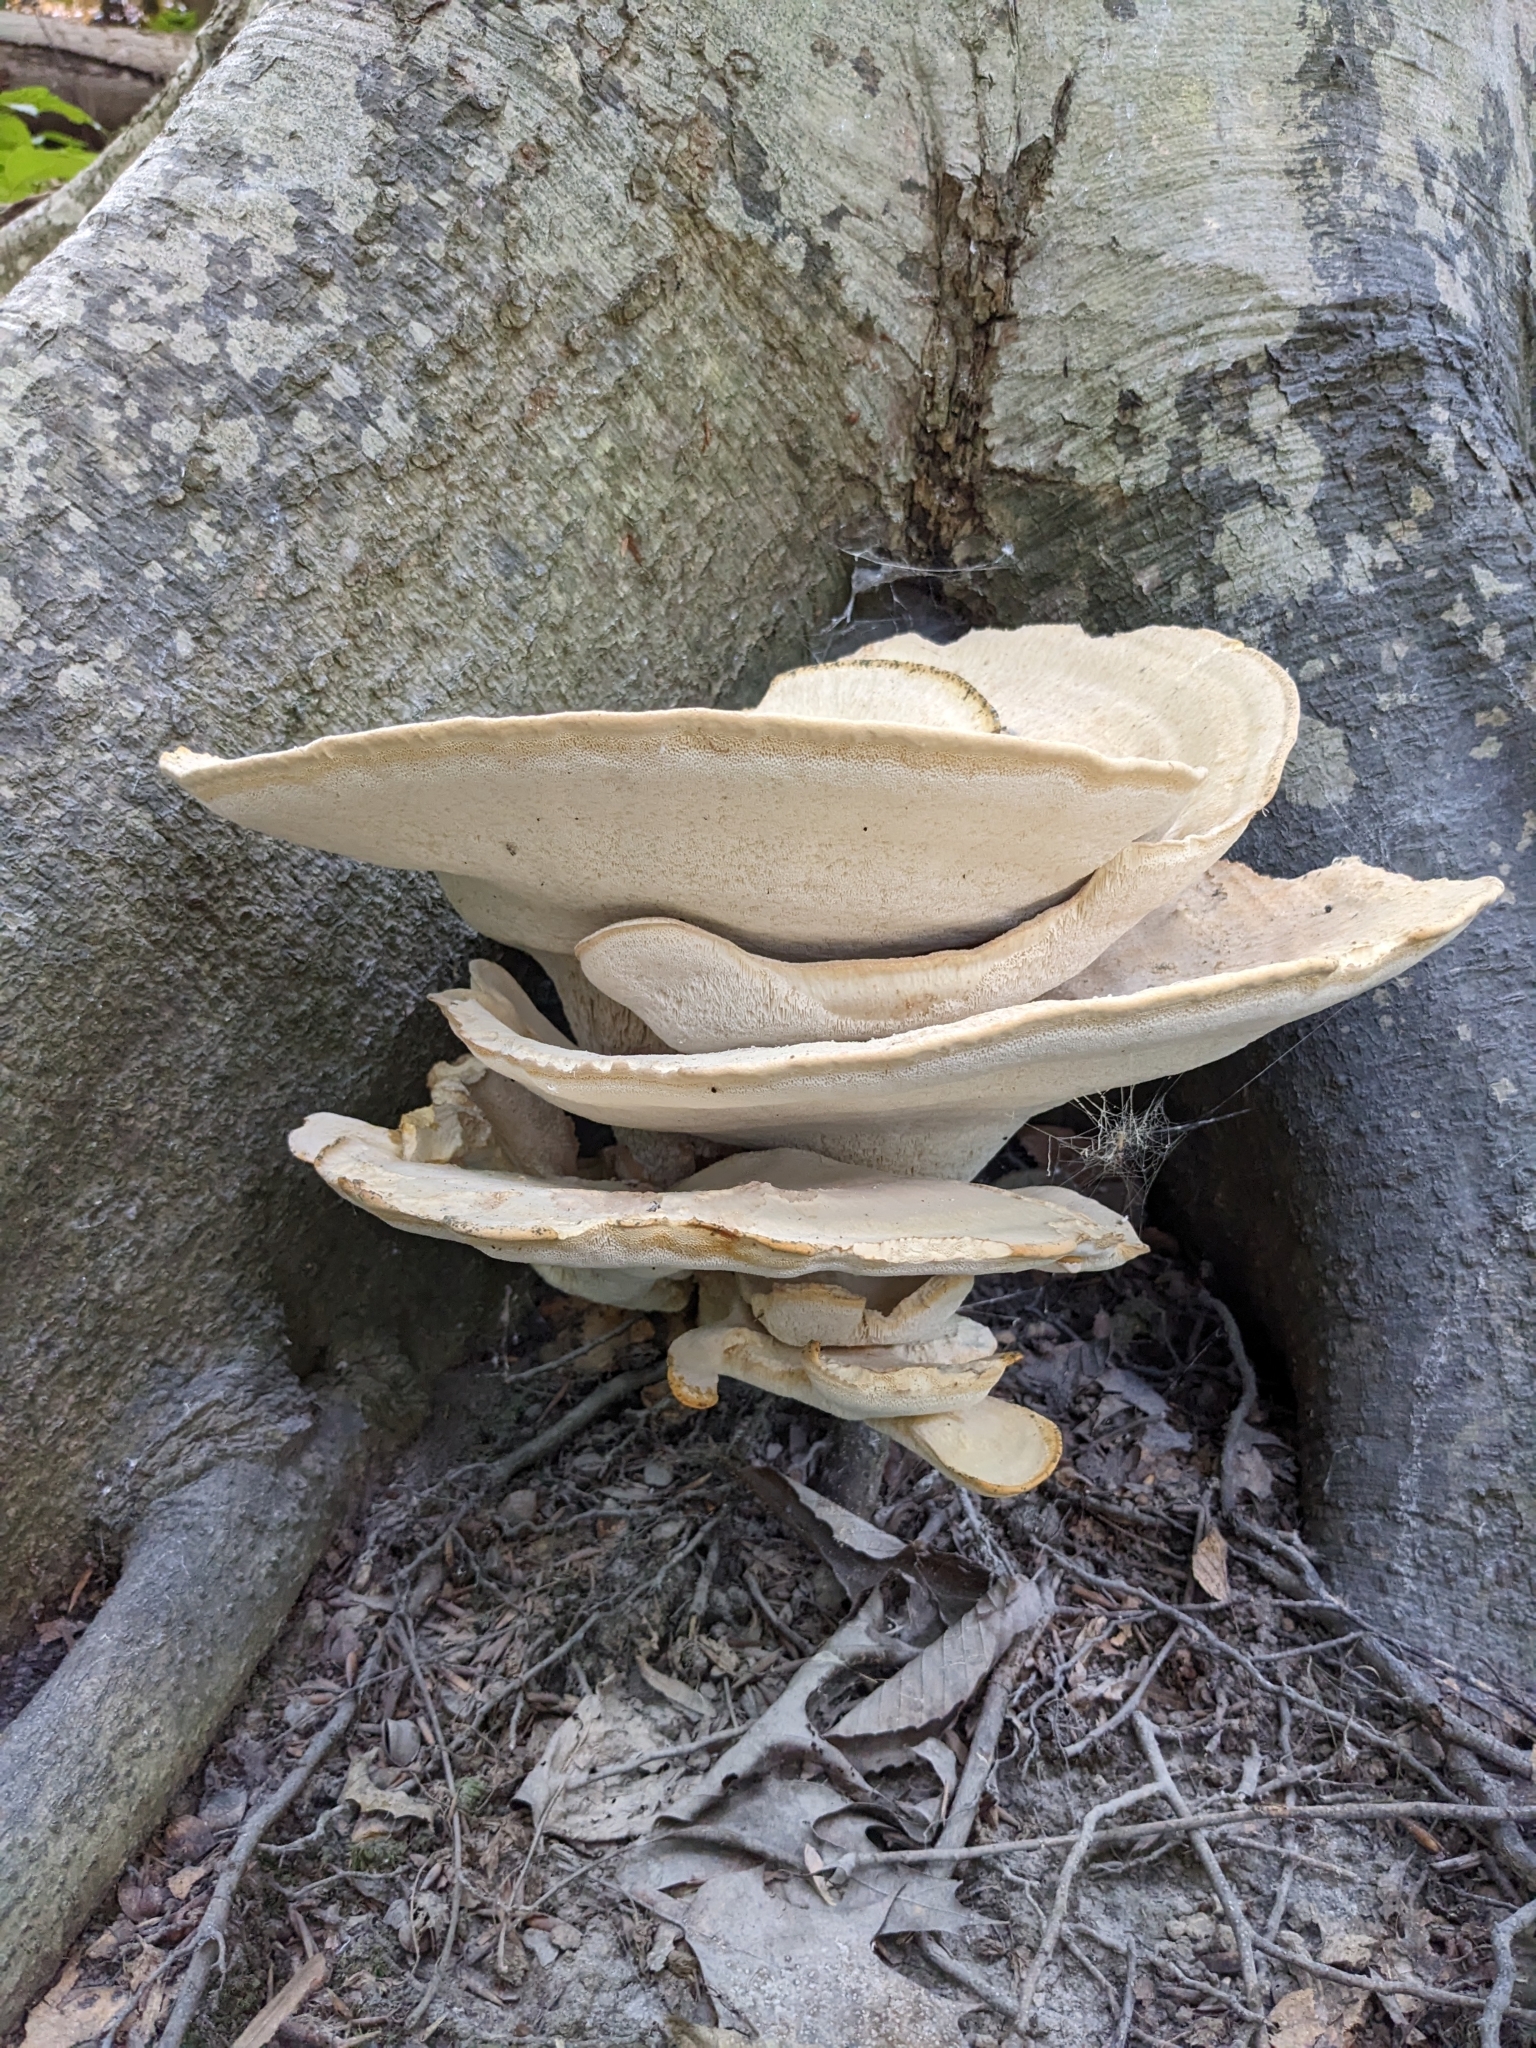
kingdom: Fungi
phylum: Basidiomycota
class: Agaricomycetes
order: Russulales
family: Bondarzewiaceae
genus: Bondarzewia
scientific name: Bondarzewia berkeleyi
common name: Berkeley's polypore
